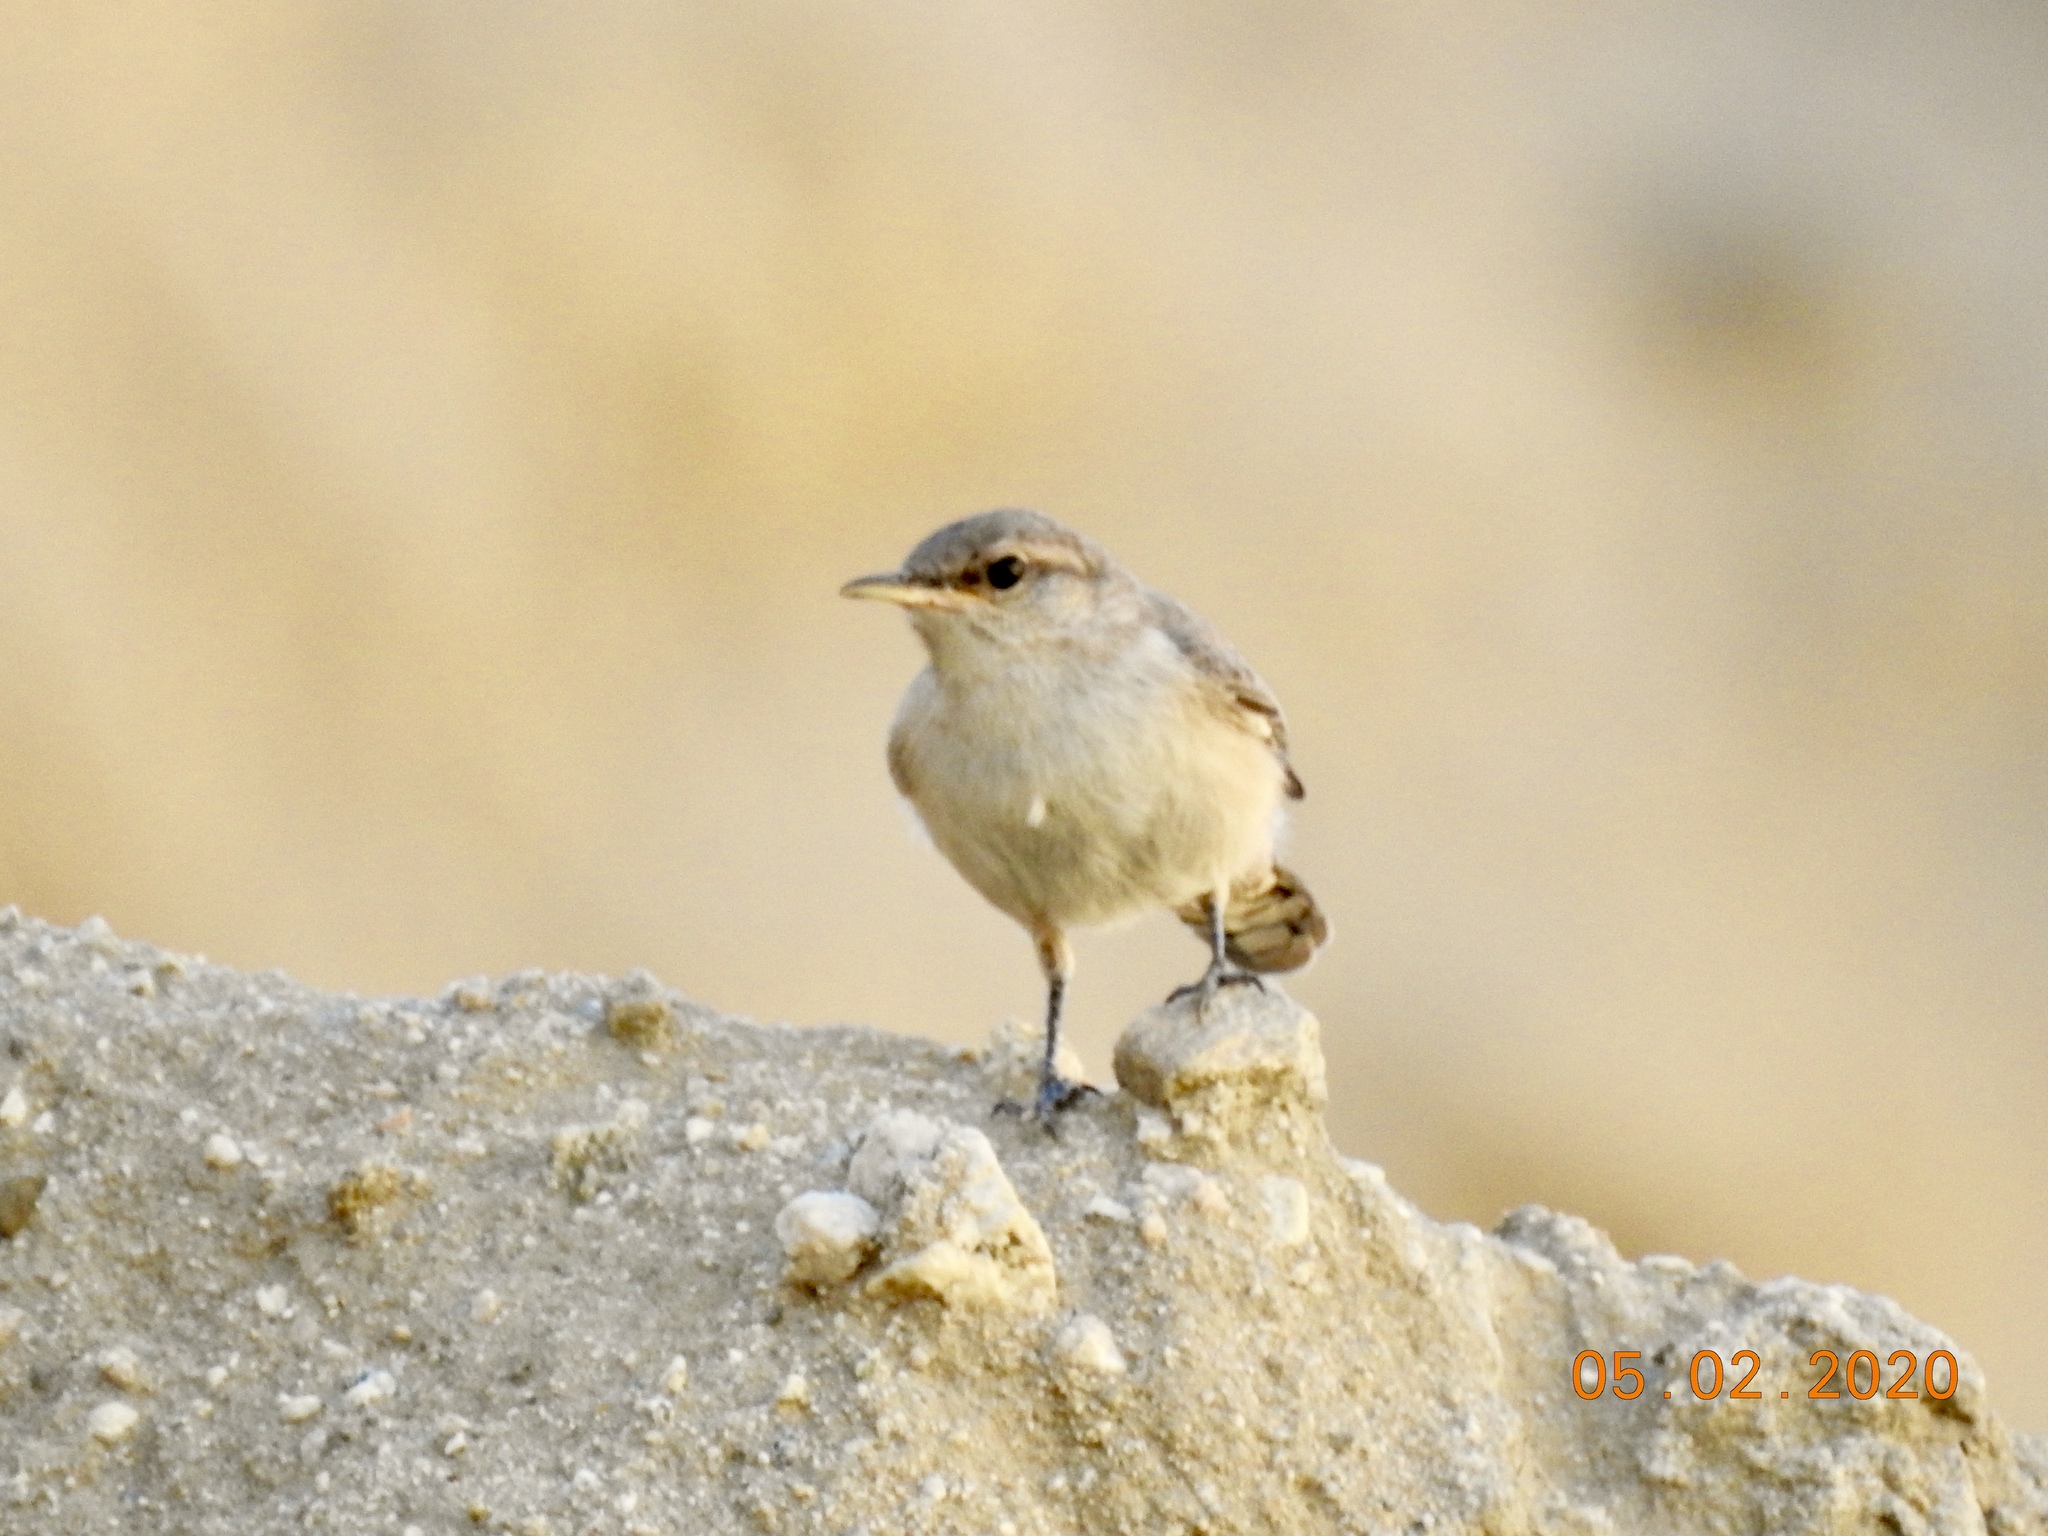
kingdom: Animalia
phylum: Chordata
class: Aves
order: Passeriformes
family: Troglodytidae
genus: Salpinctes
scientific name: Salpinctes obsoletus
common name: Rock wren
